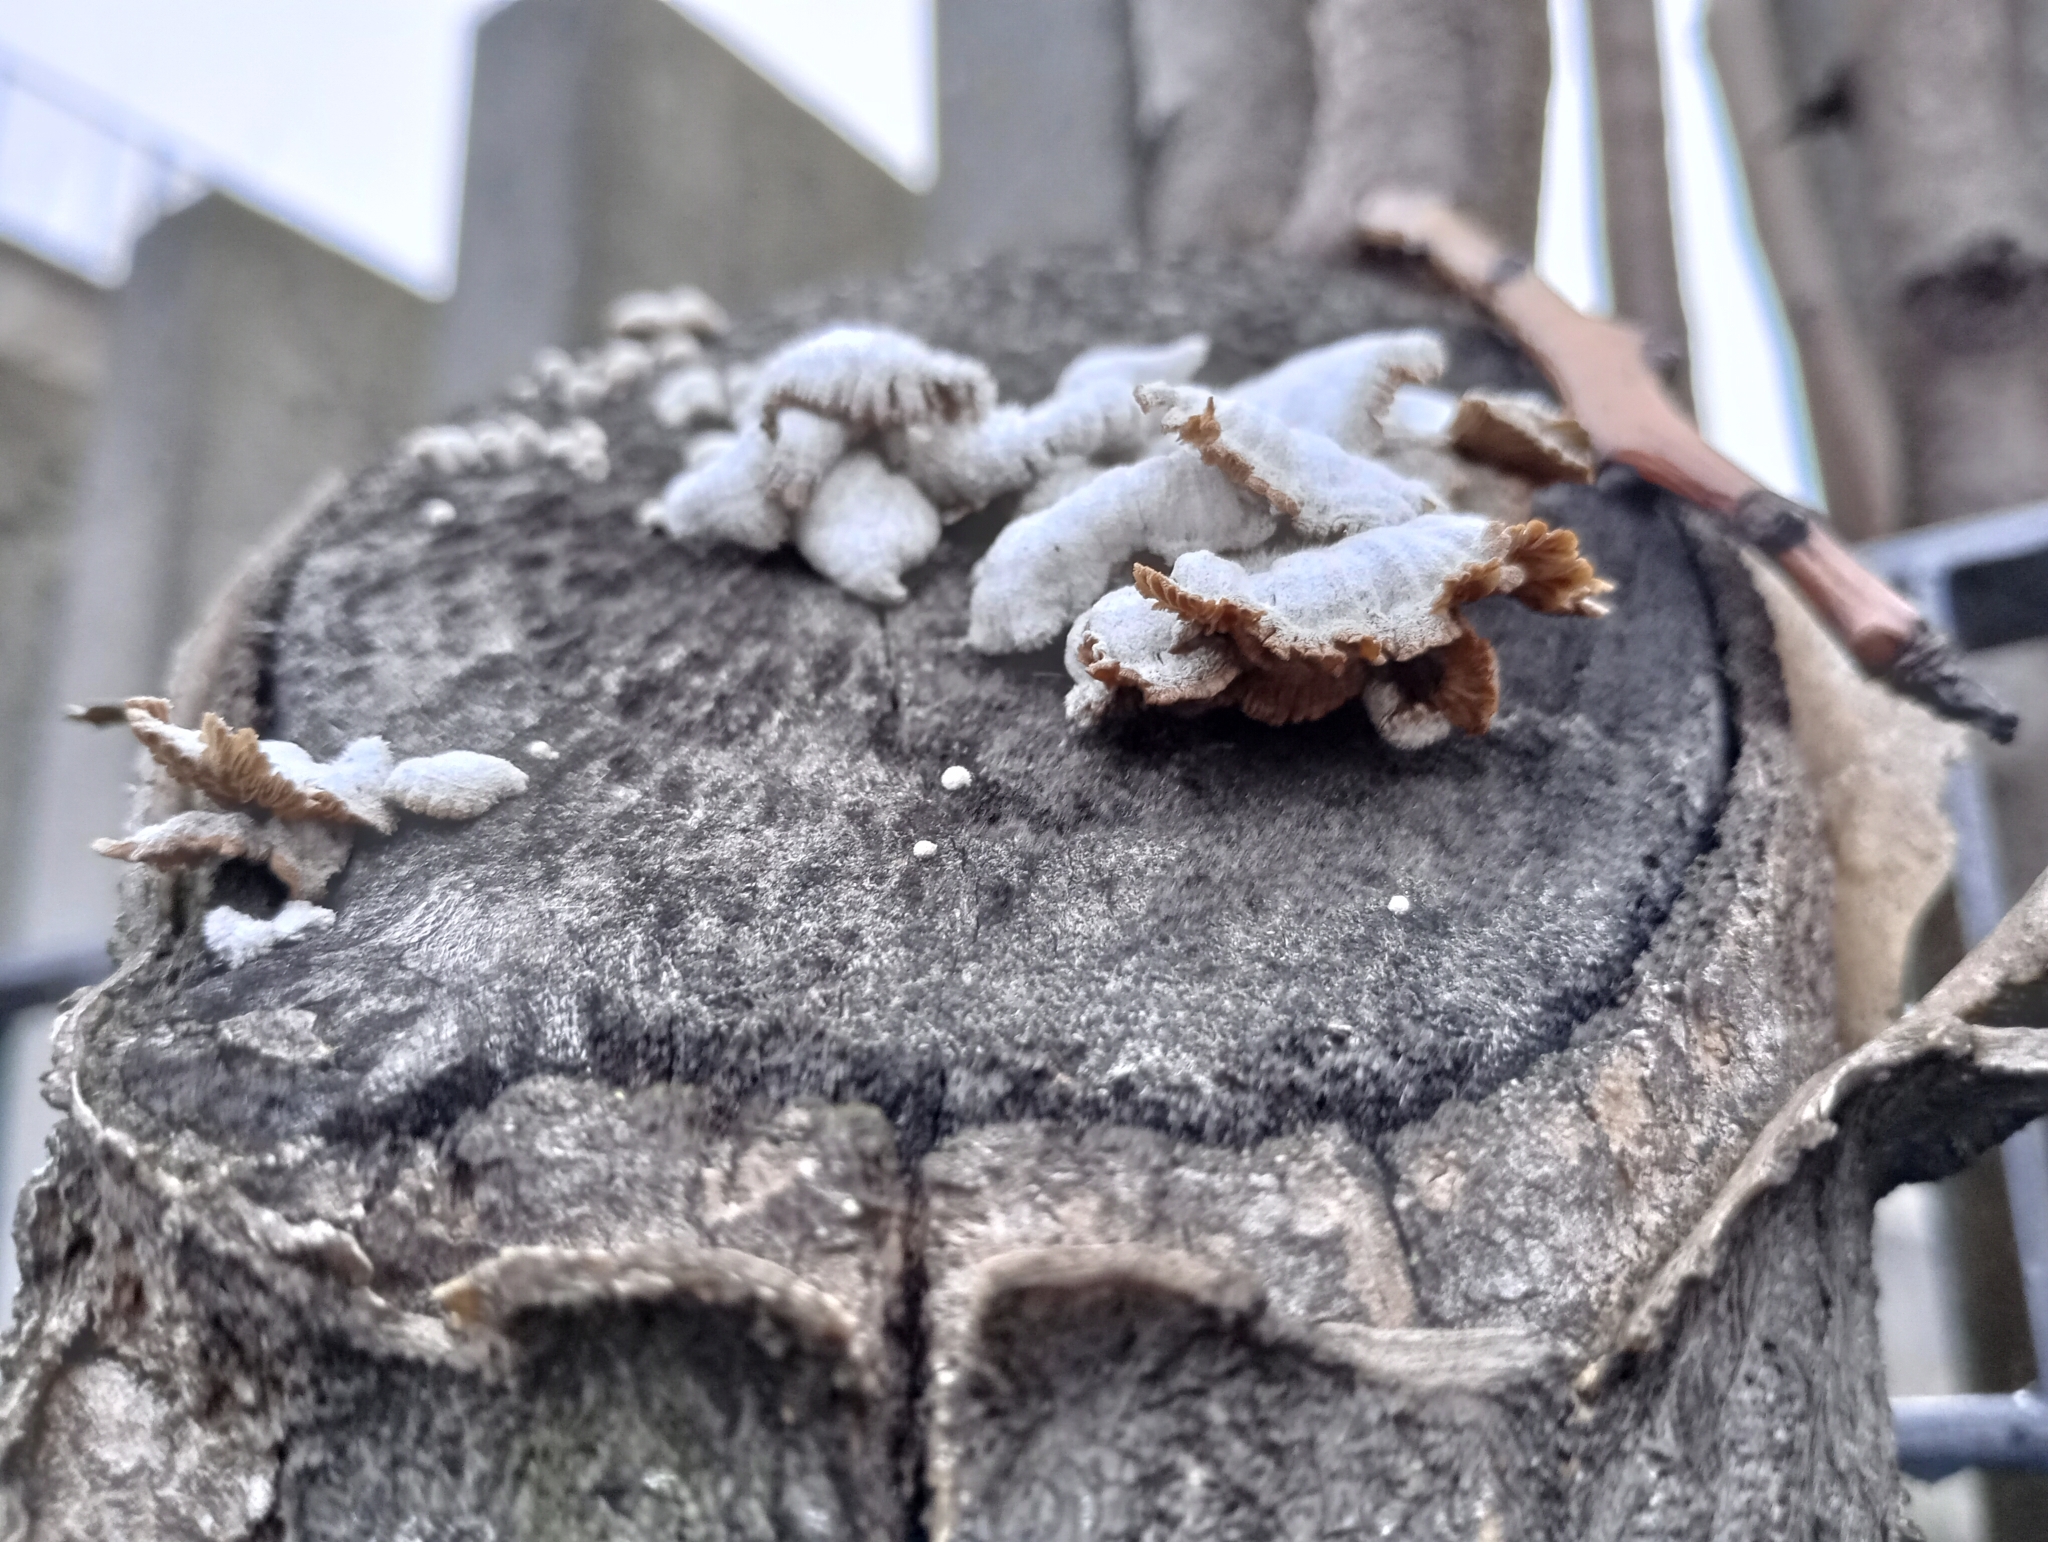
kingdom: Fungi
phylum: Basidiomycota
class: Agaricomycetes
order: Agaricales
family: Schizophyllaceae
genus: Schizophyllum
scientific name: Schizophyllum commune
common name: Common porecrust
